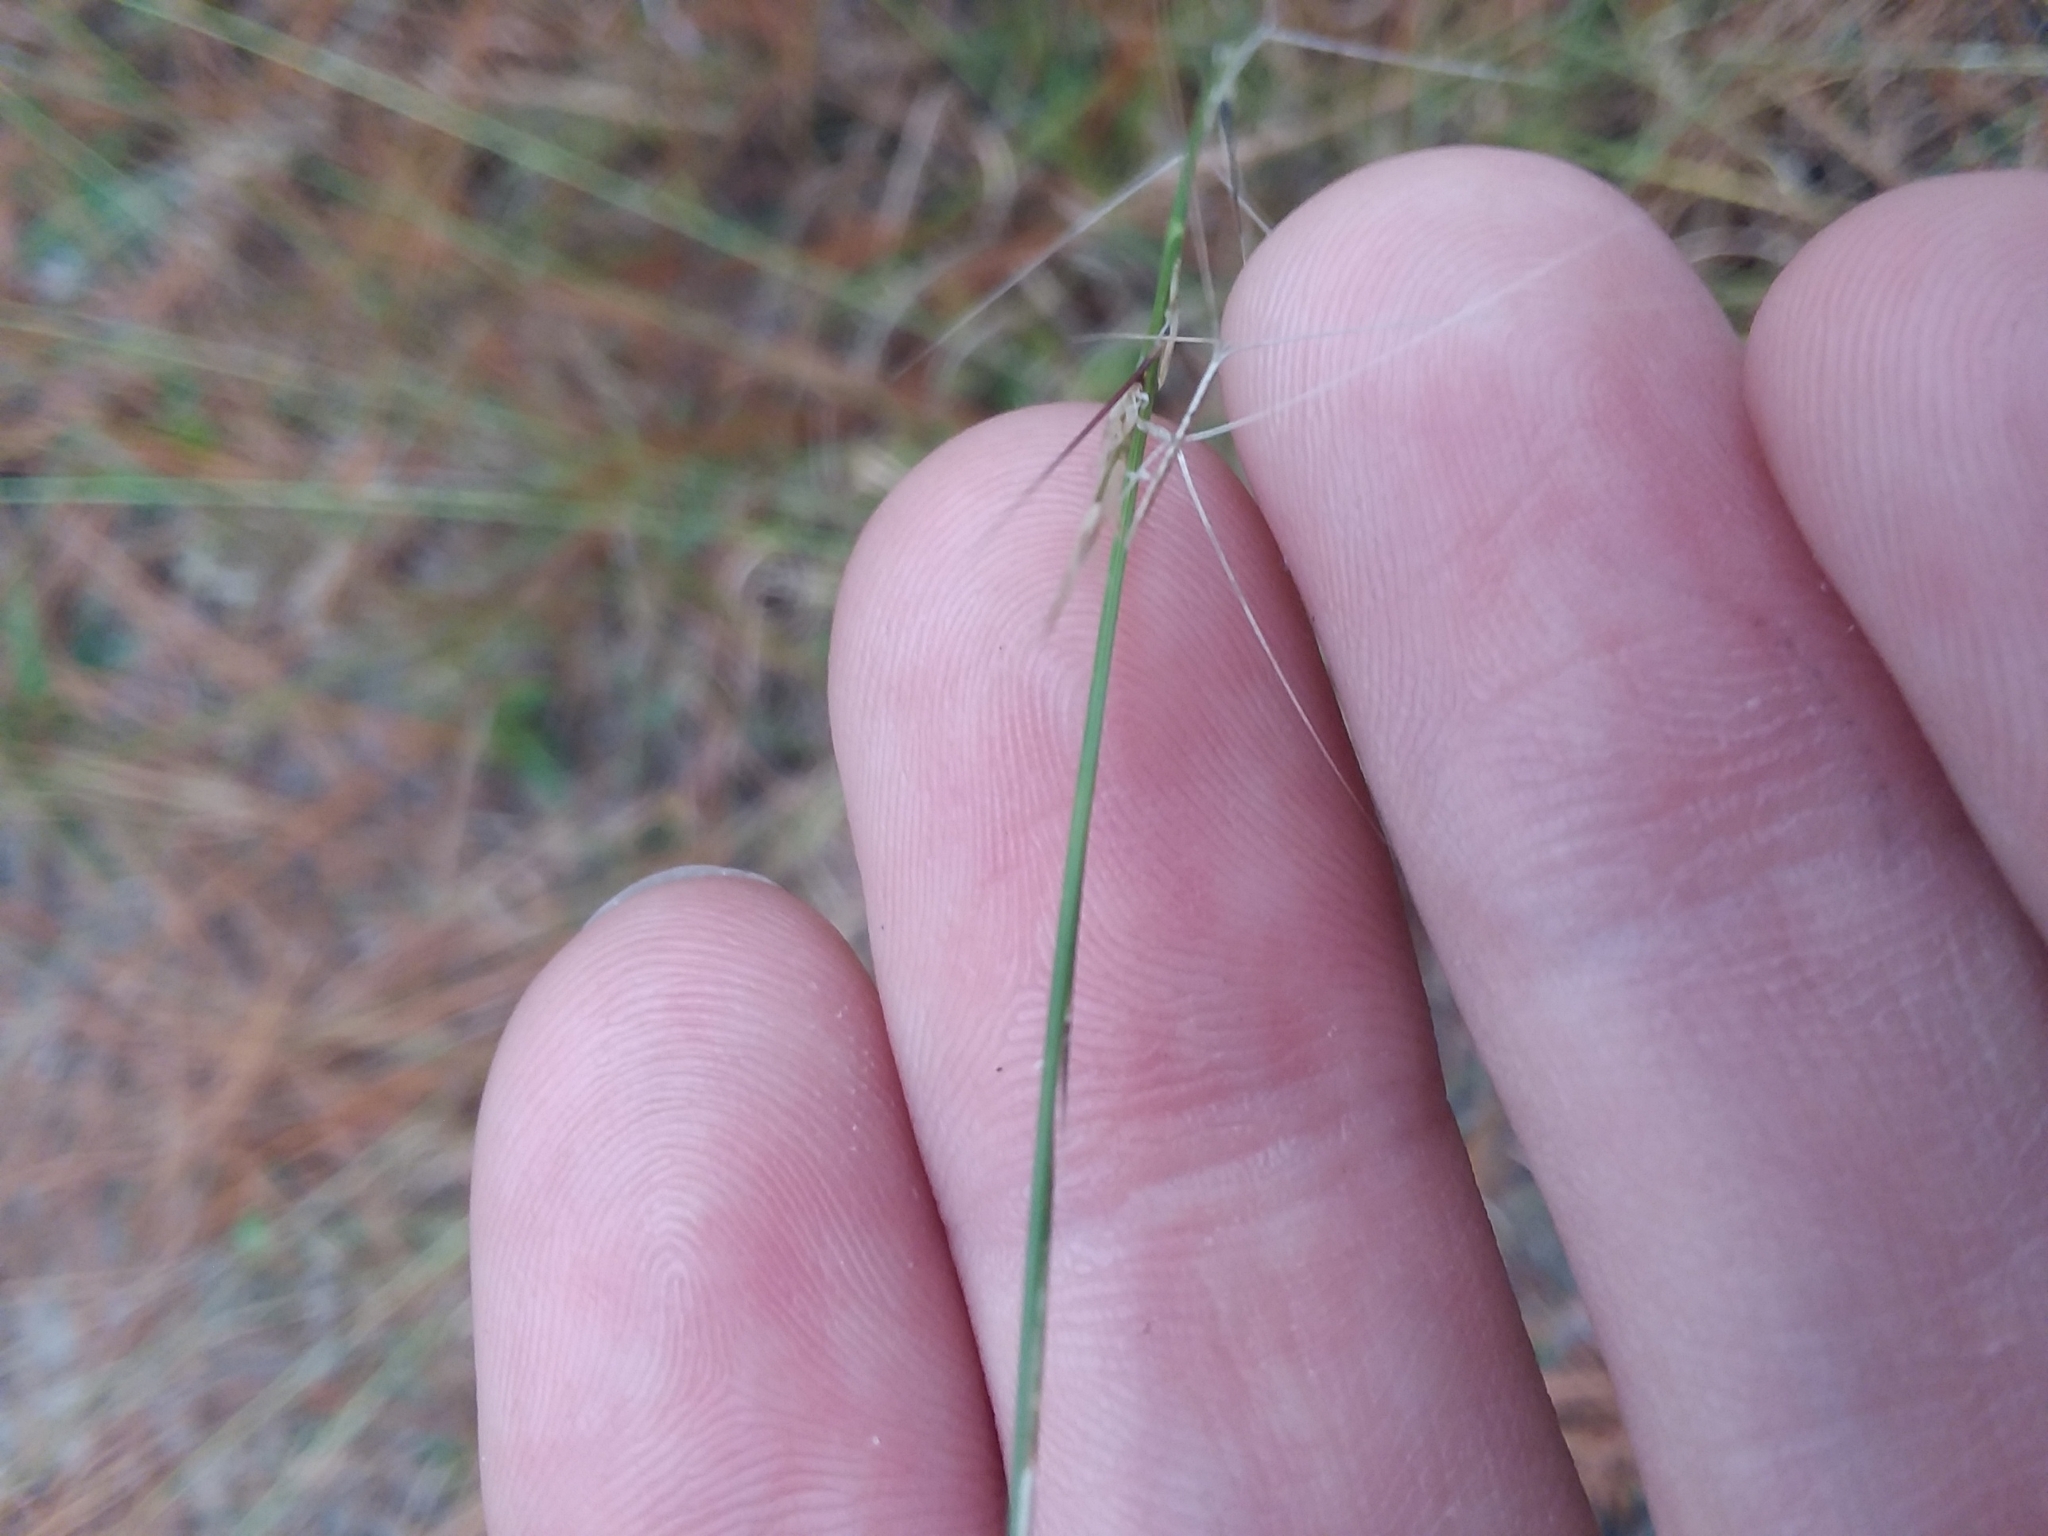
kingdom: Plantae
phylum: Tracheophyta
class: Liliopsida
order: Poales
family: Poaceae
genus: Aristida
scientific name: Aristida purpurascens
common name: Arrow-feather
